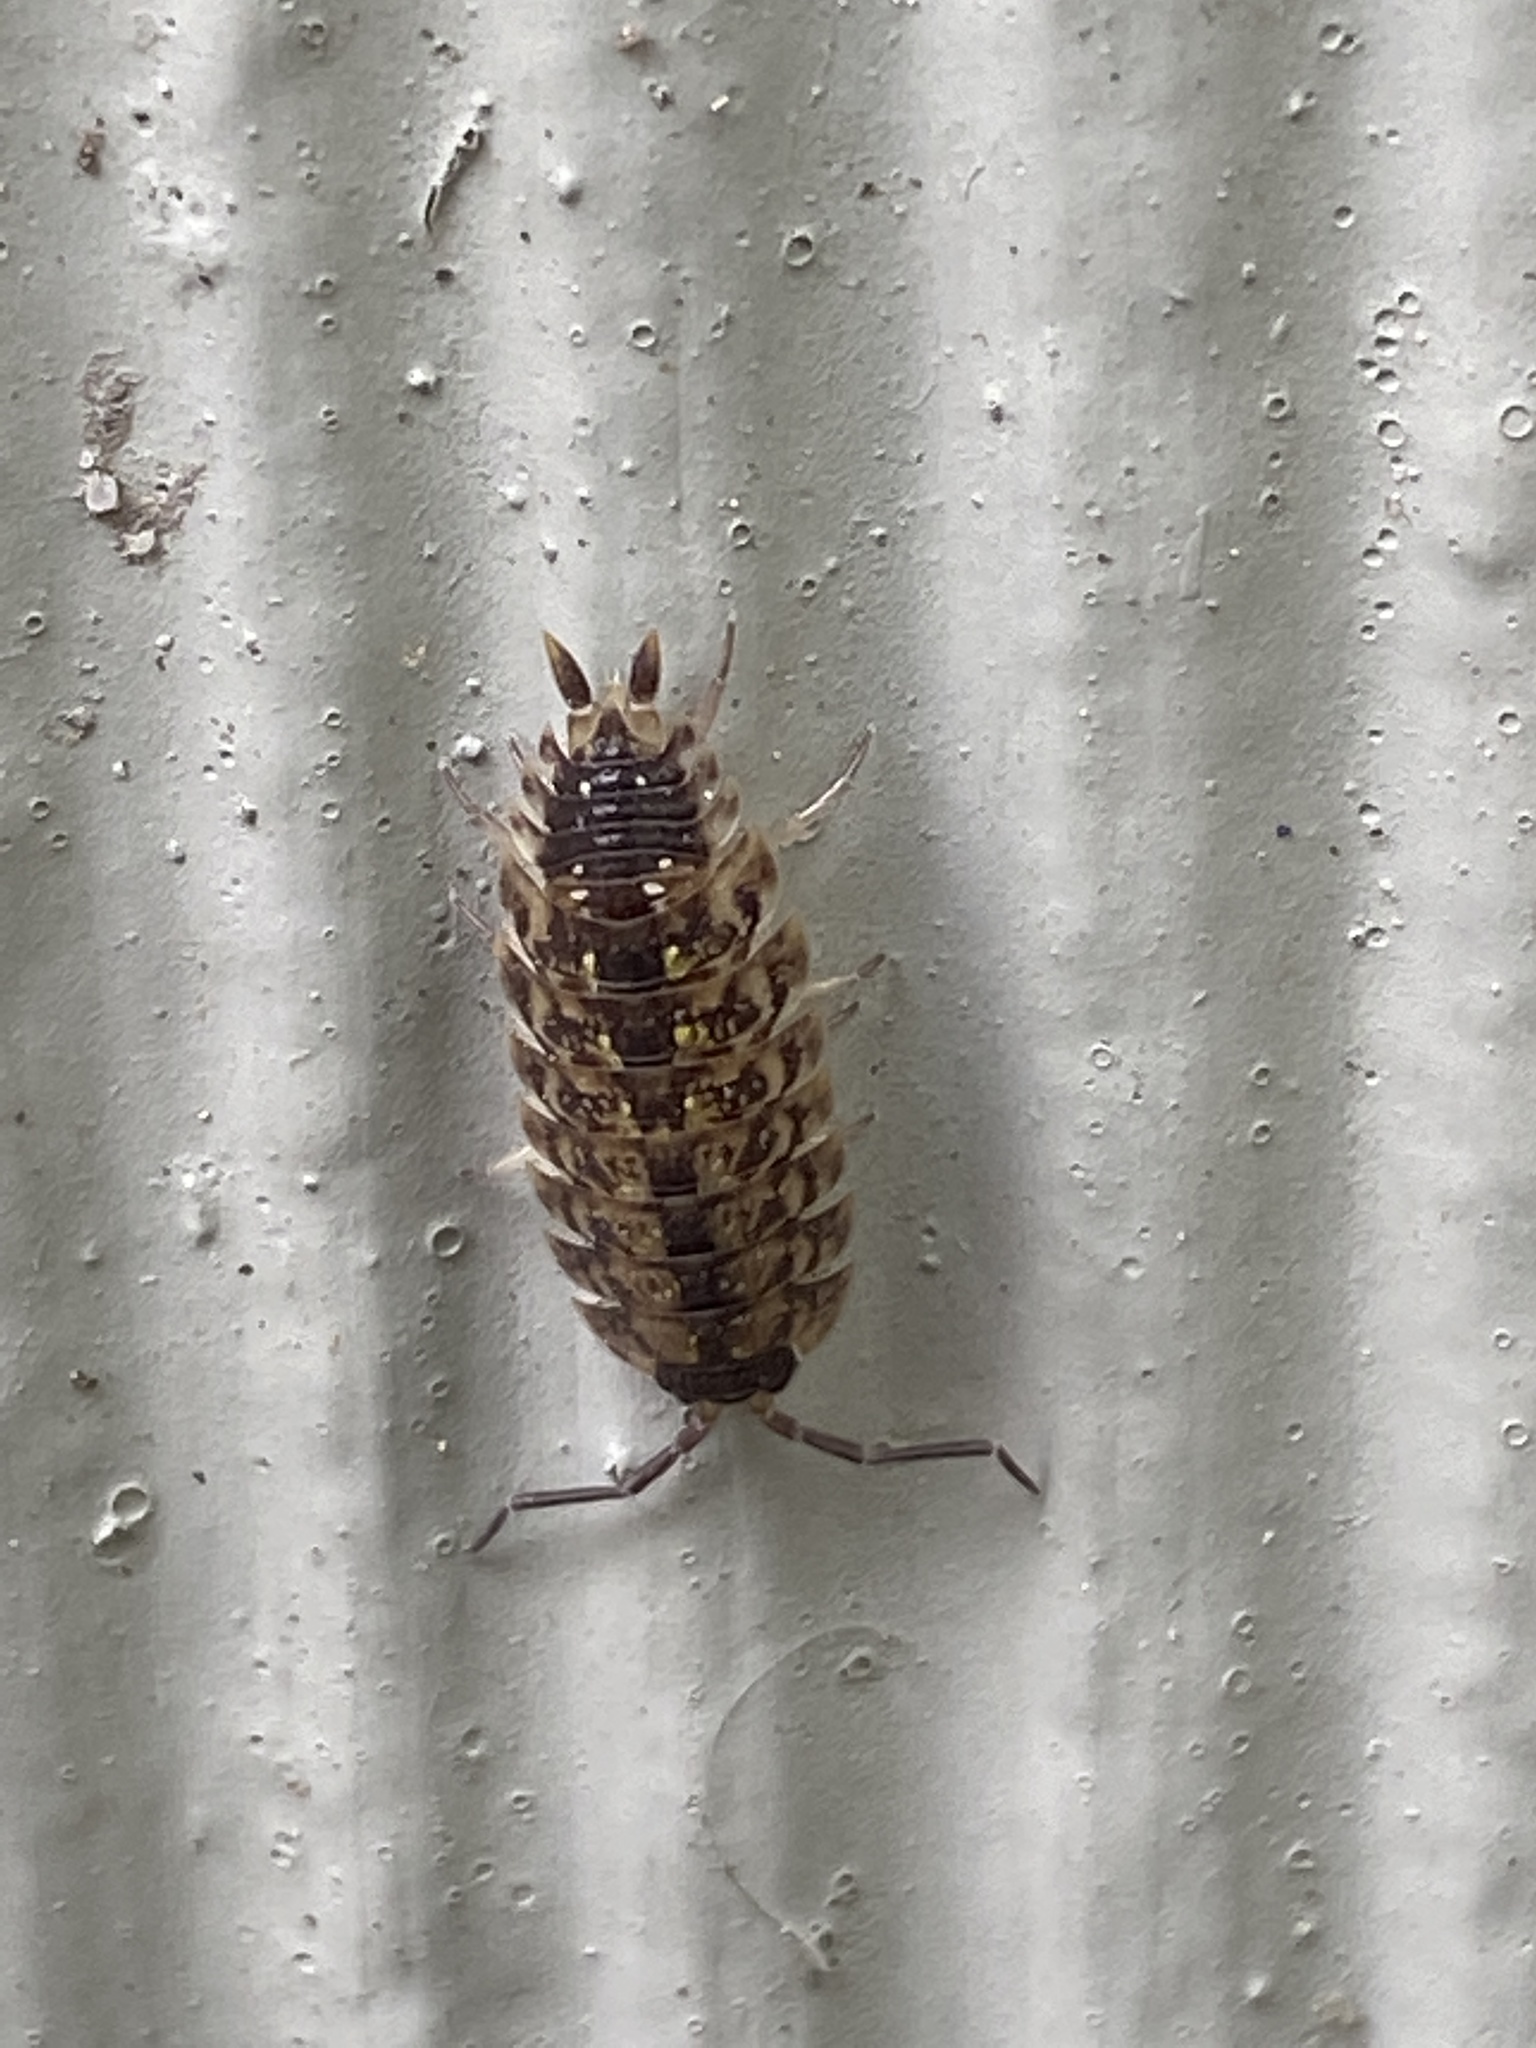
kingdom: Animalia
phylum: Arthropoda
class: Malacostraca
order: Isopoda
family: Porcellionidae
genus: Porcellio
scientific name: Porcellio spinicornis
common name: Painted woodlouse
